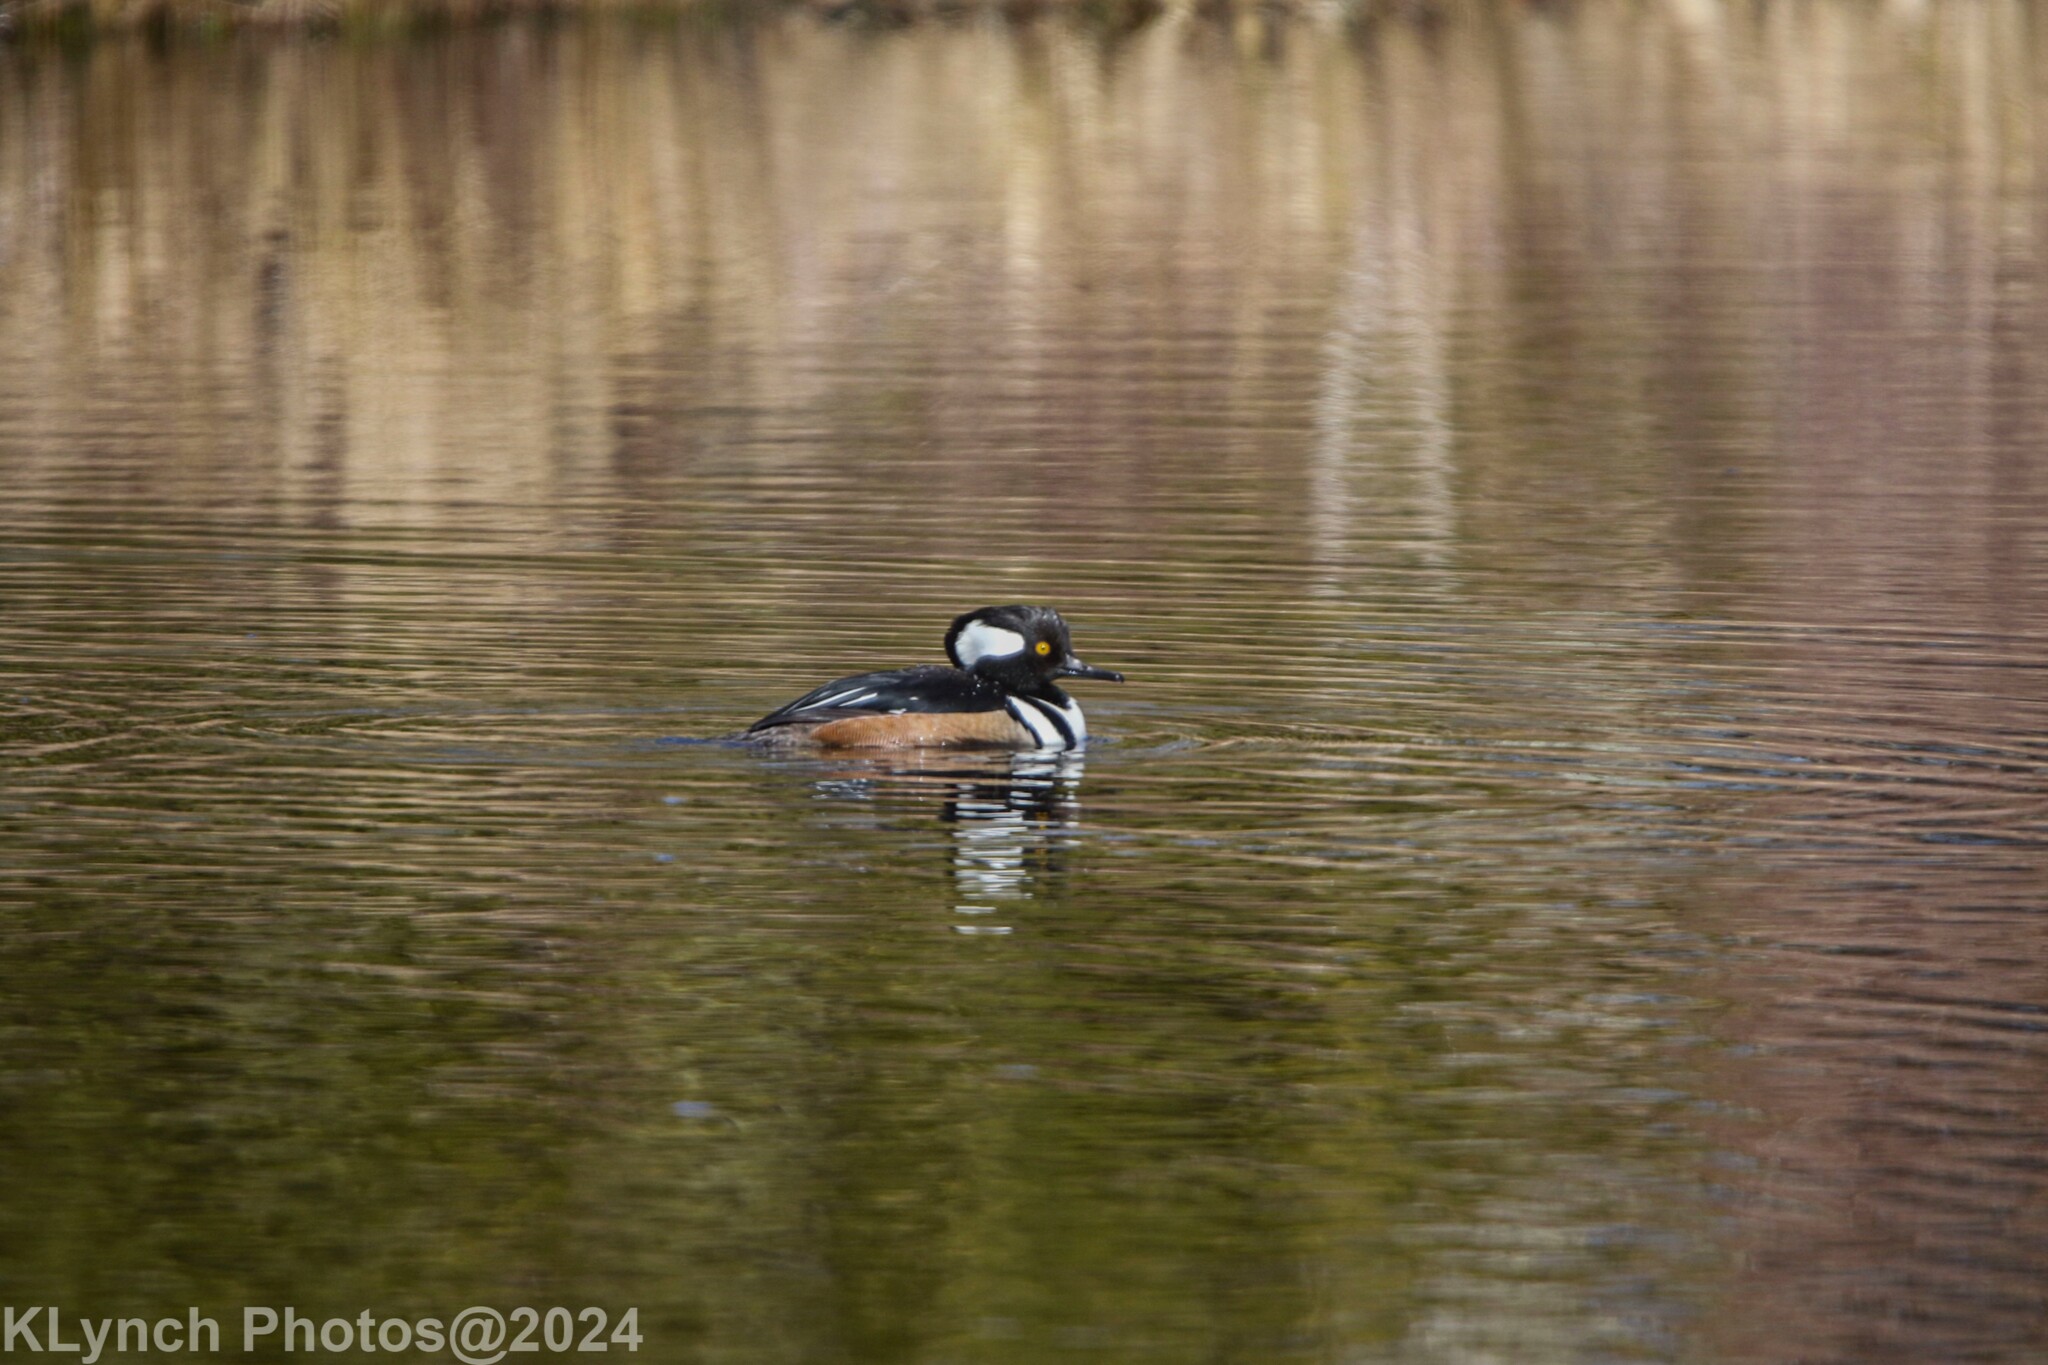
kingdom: Animalia
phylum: Chordata
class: Aves
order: Anseriformes
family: Anatidae
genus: Lophodytes
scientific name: Lophodytes cucullatus
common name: Hooded merganser
